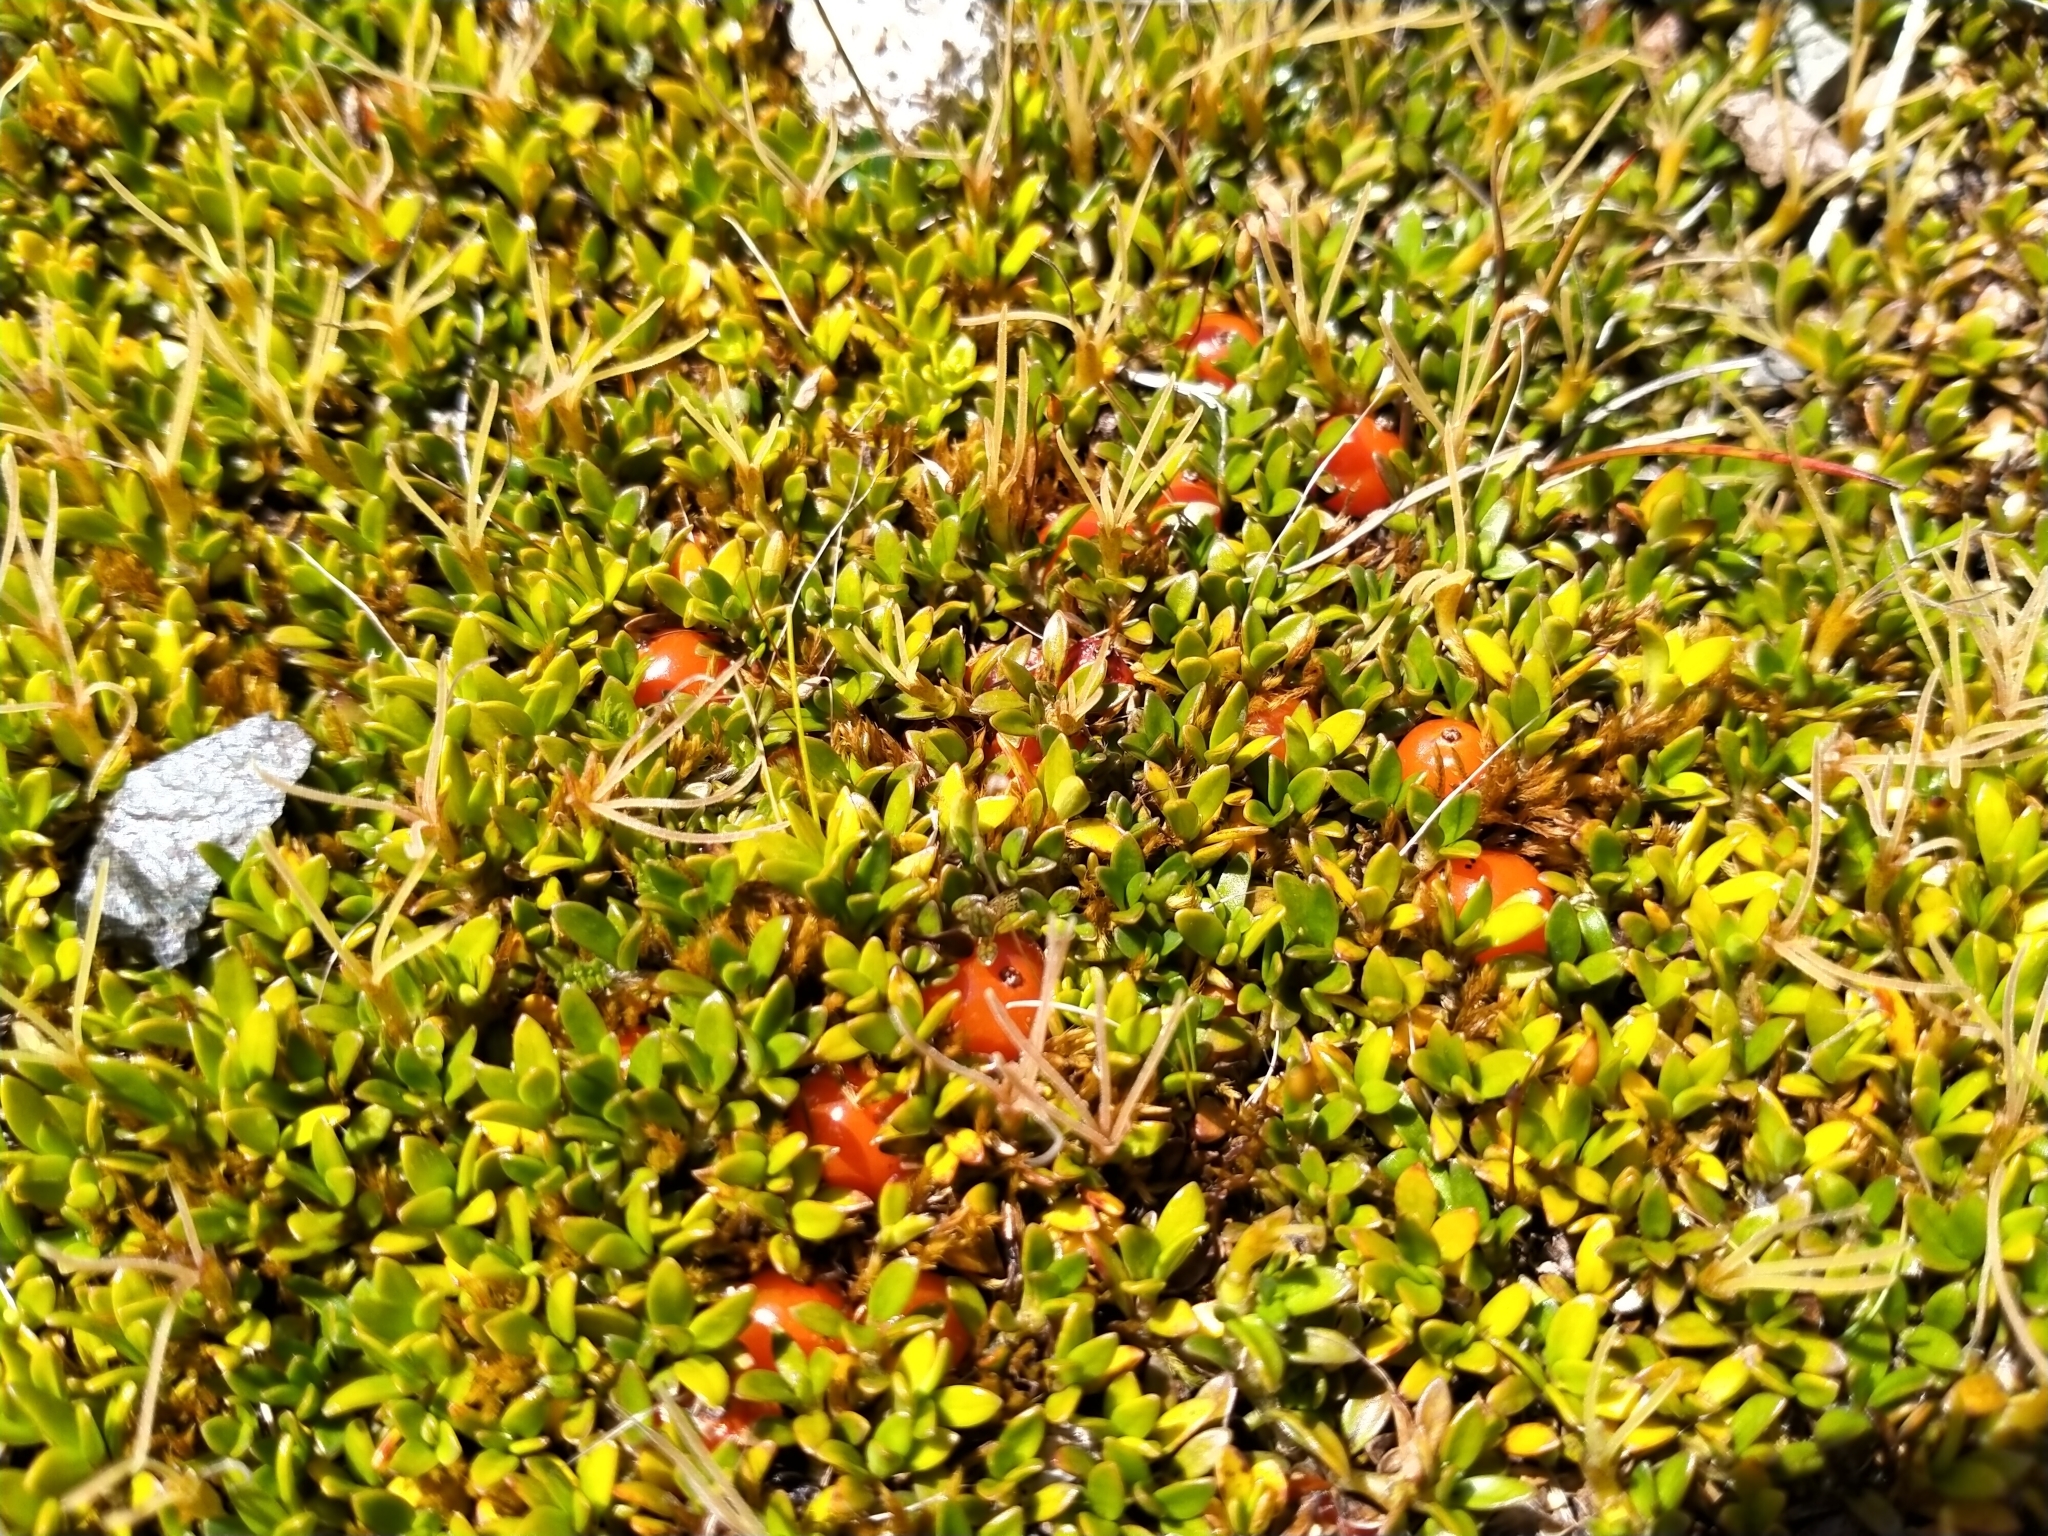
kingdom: Plantae
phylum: Tracheophyta
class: Magnoliopsida
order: Gentianales
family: Rubiaceae
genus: Coprosma
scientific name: Coprosma perpusilla
